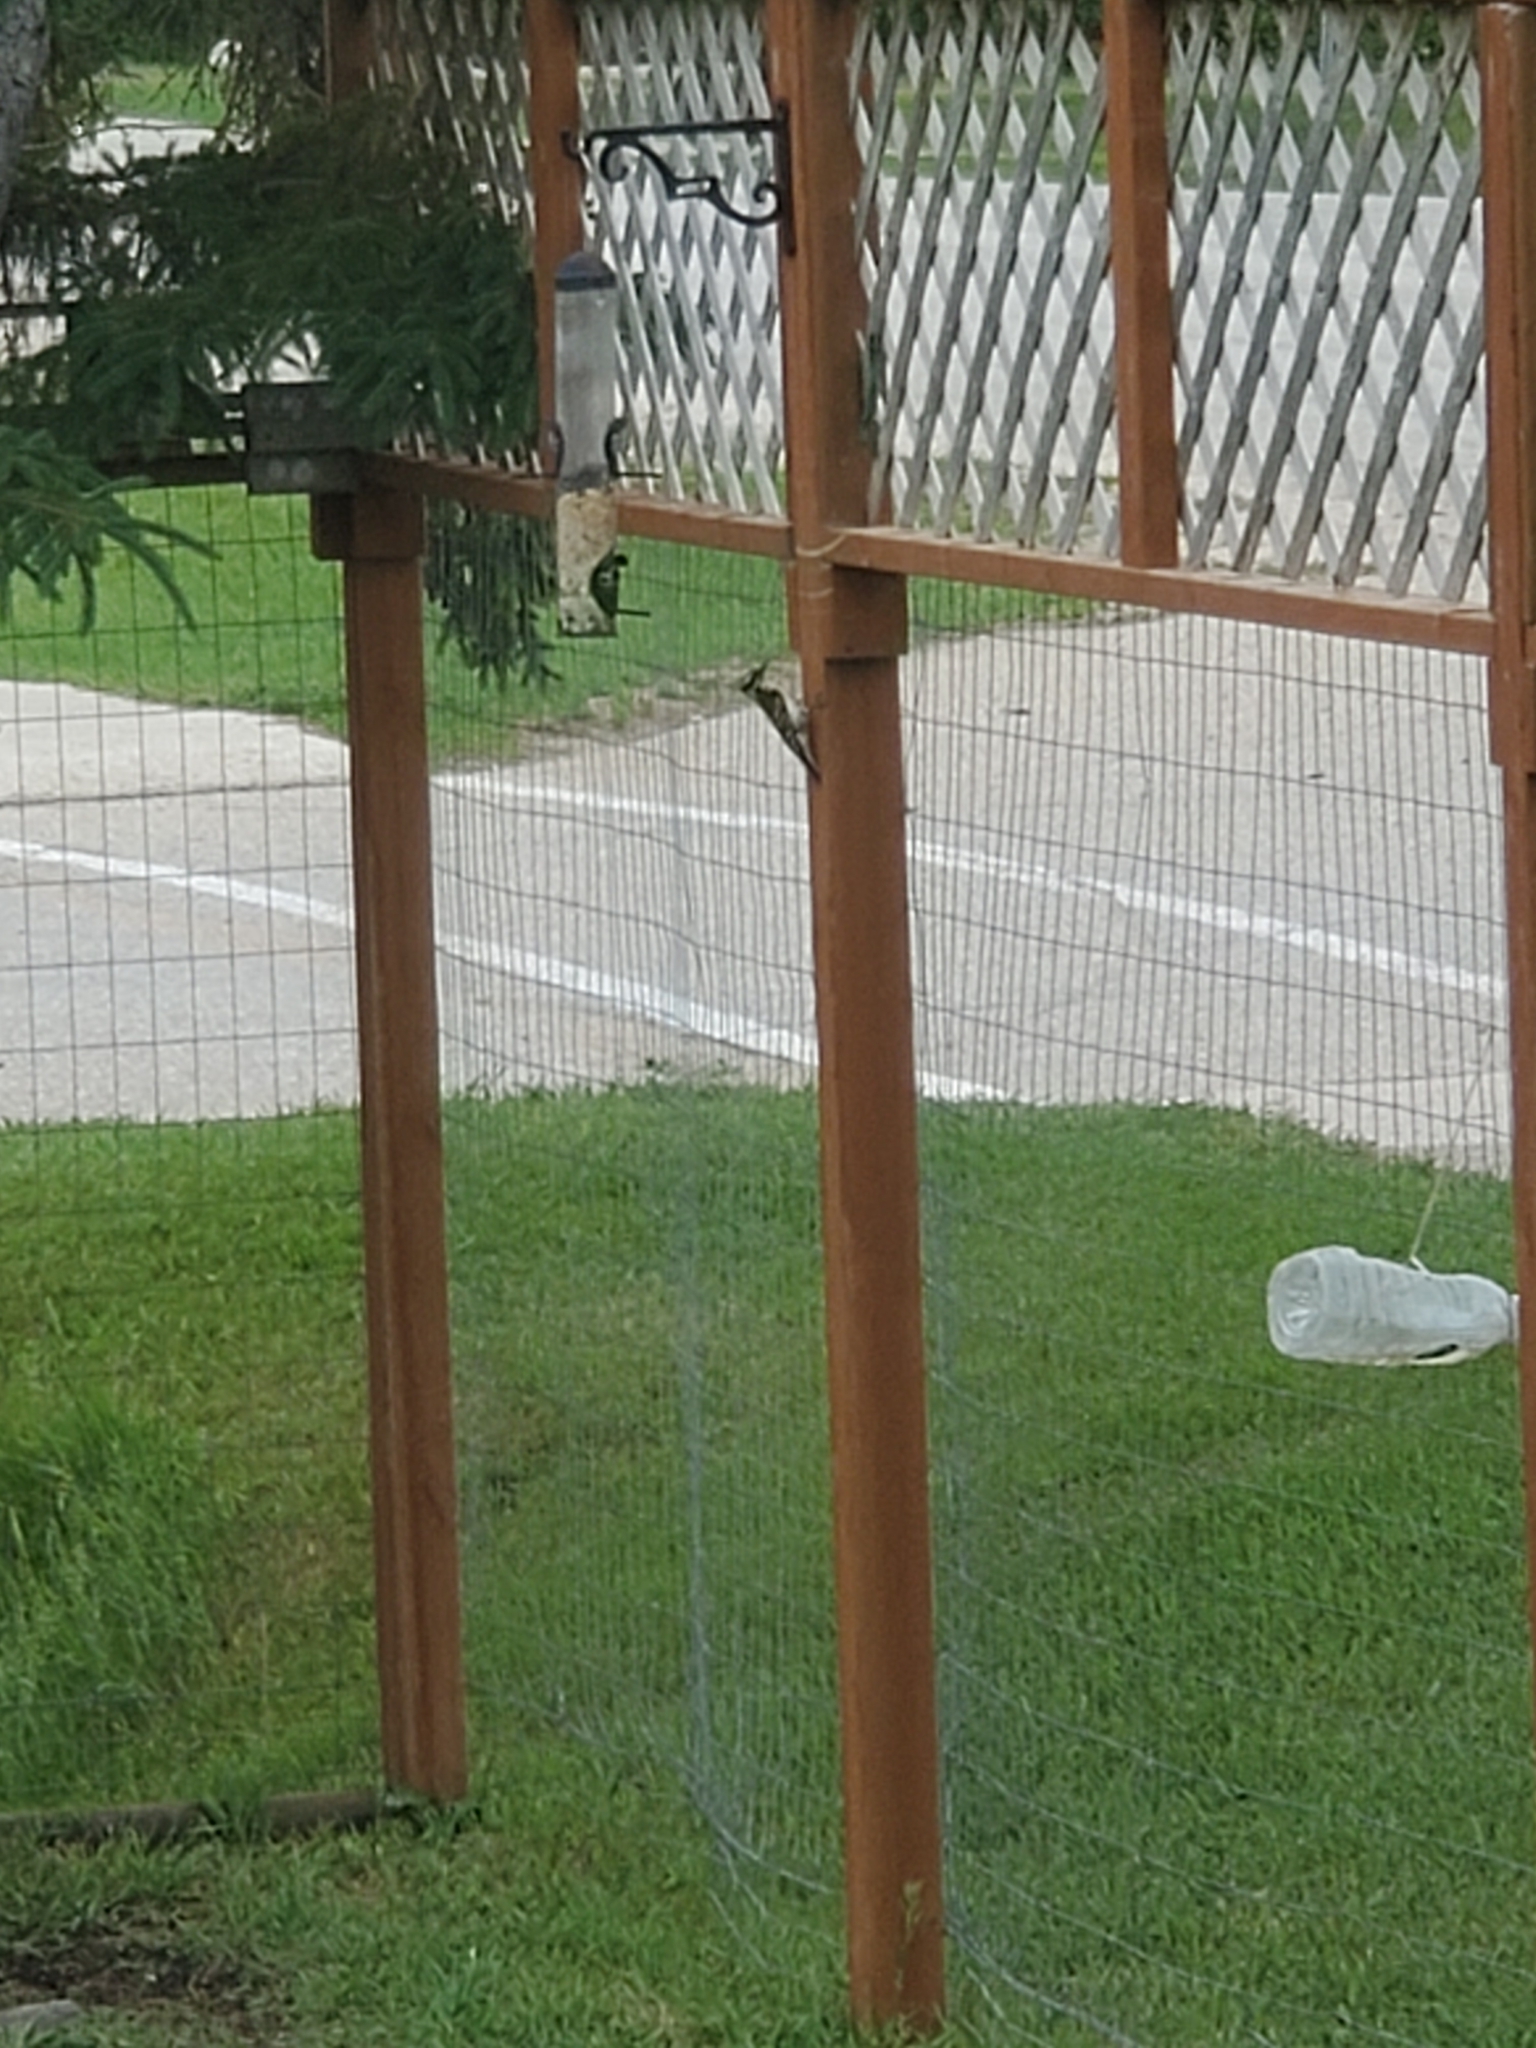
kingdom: Animalia
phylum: Chordata
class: Aves
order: Piciformes
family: Picidae
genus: Dryobates
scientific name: Dryobates pubescens
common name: Downy woodpecker
